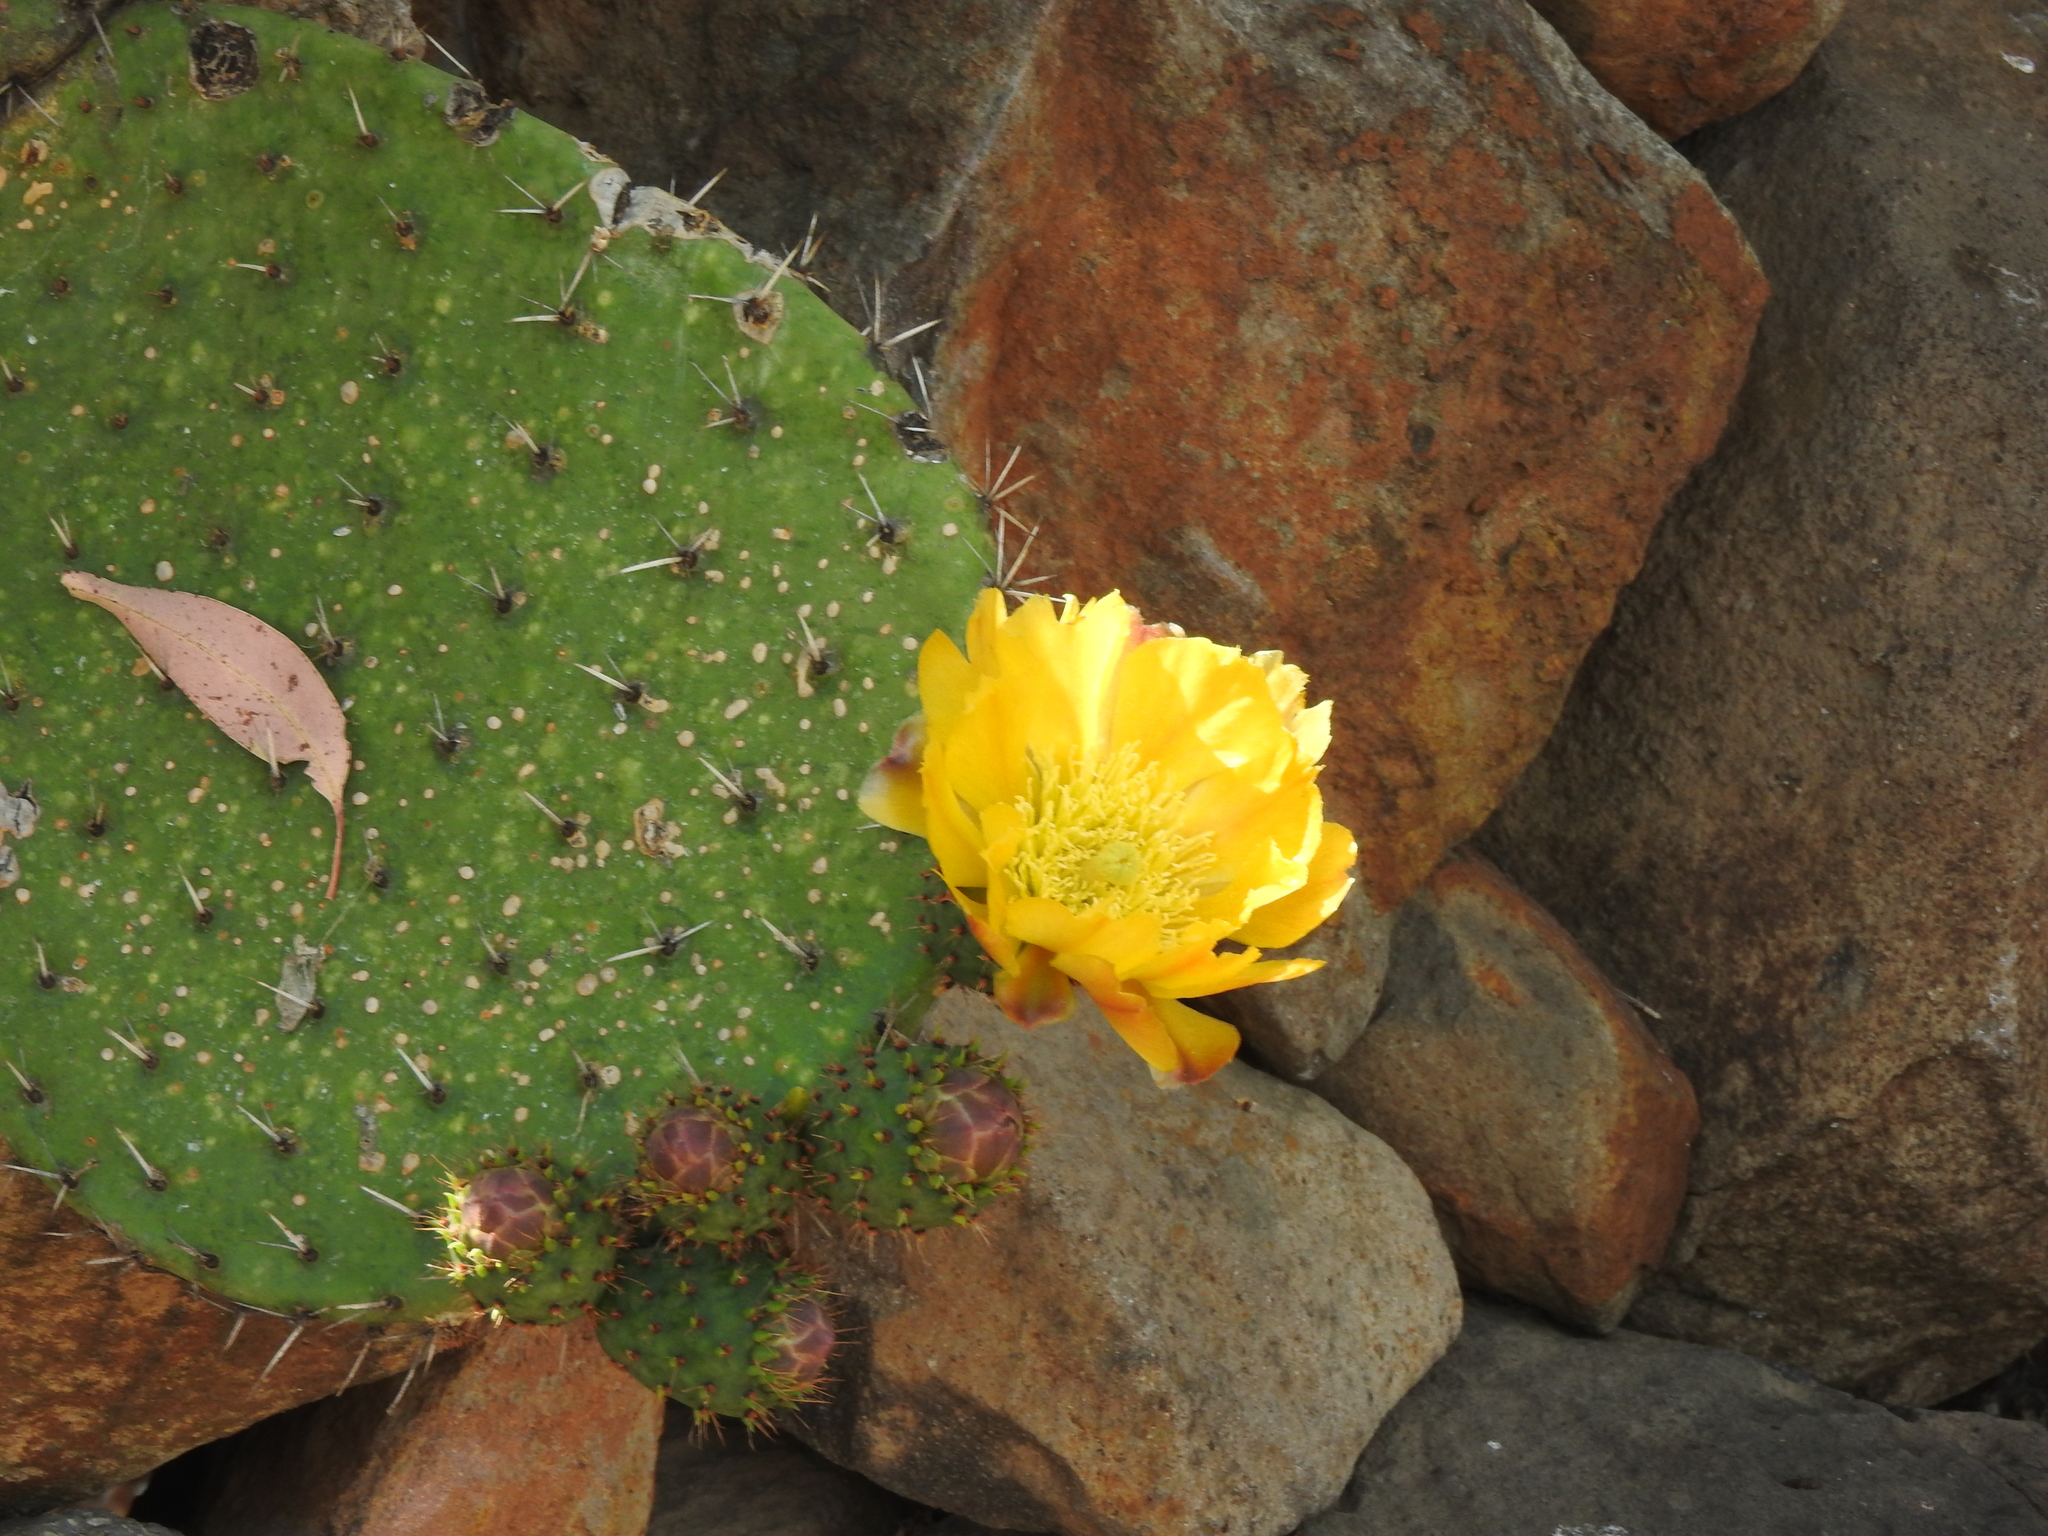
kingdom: Plantae
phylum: Tracheophyta
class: Magnoliopsida
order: Caryophyllales
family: Cactaceae
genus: Opuntia
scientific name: Opuntia streptacantha
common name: Gracemere-pear
